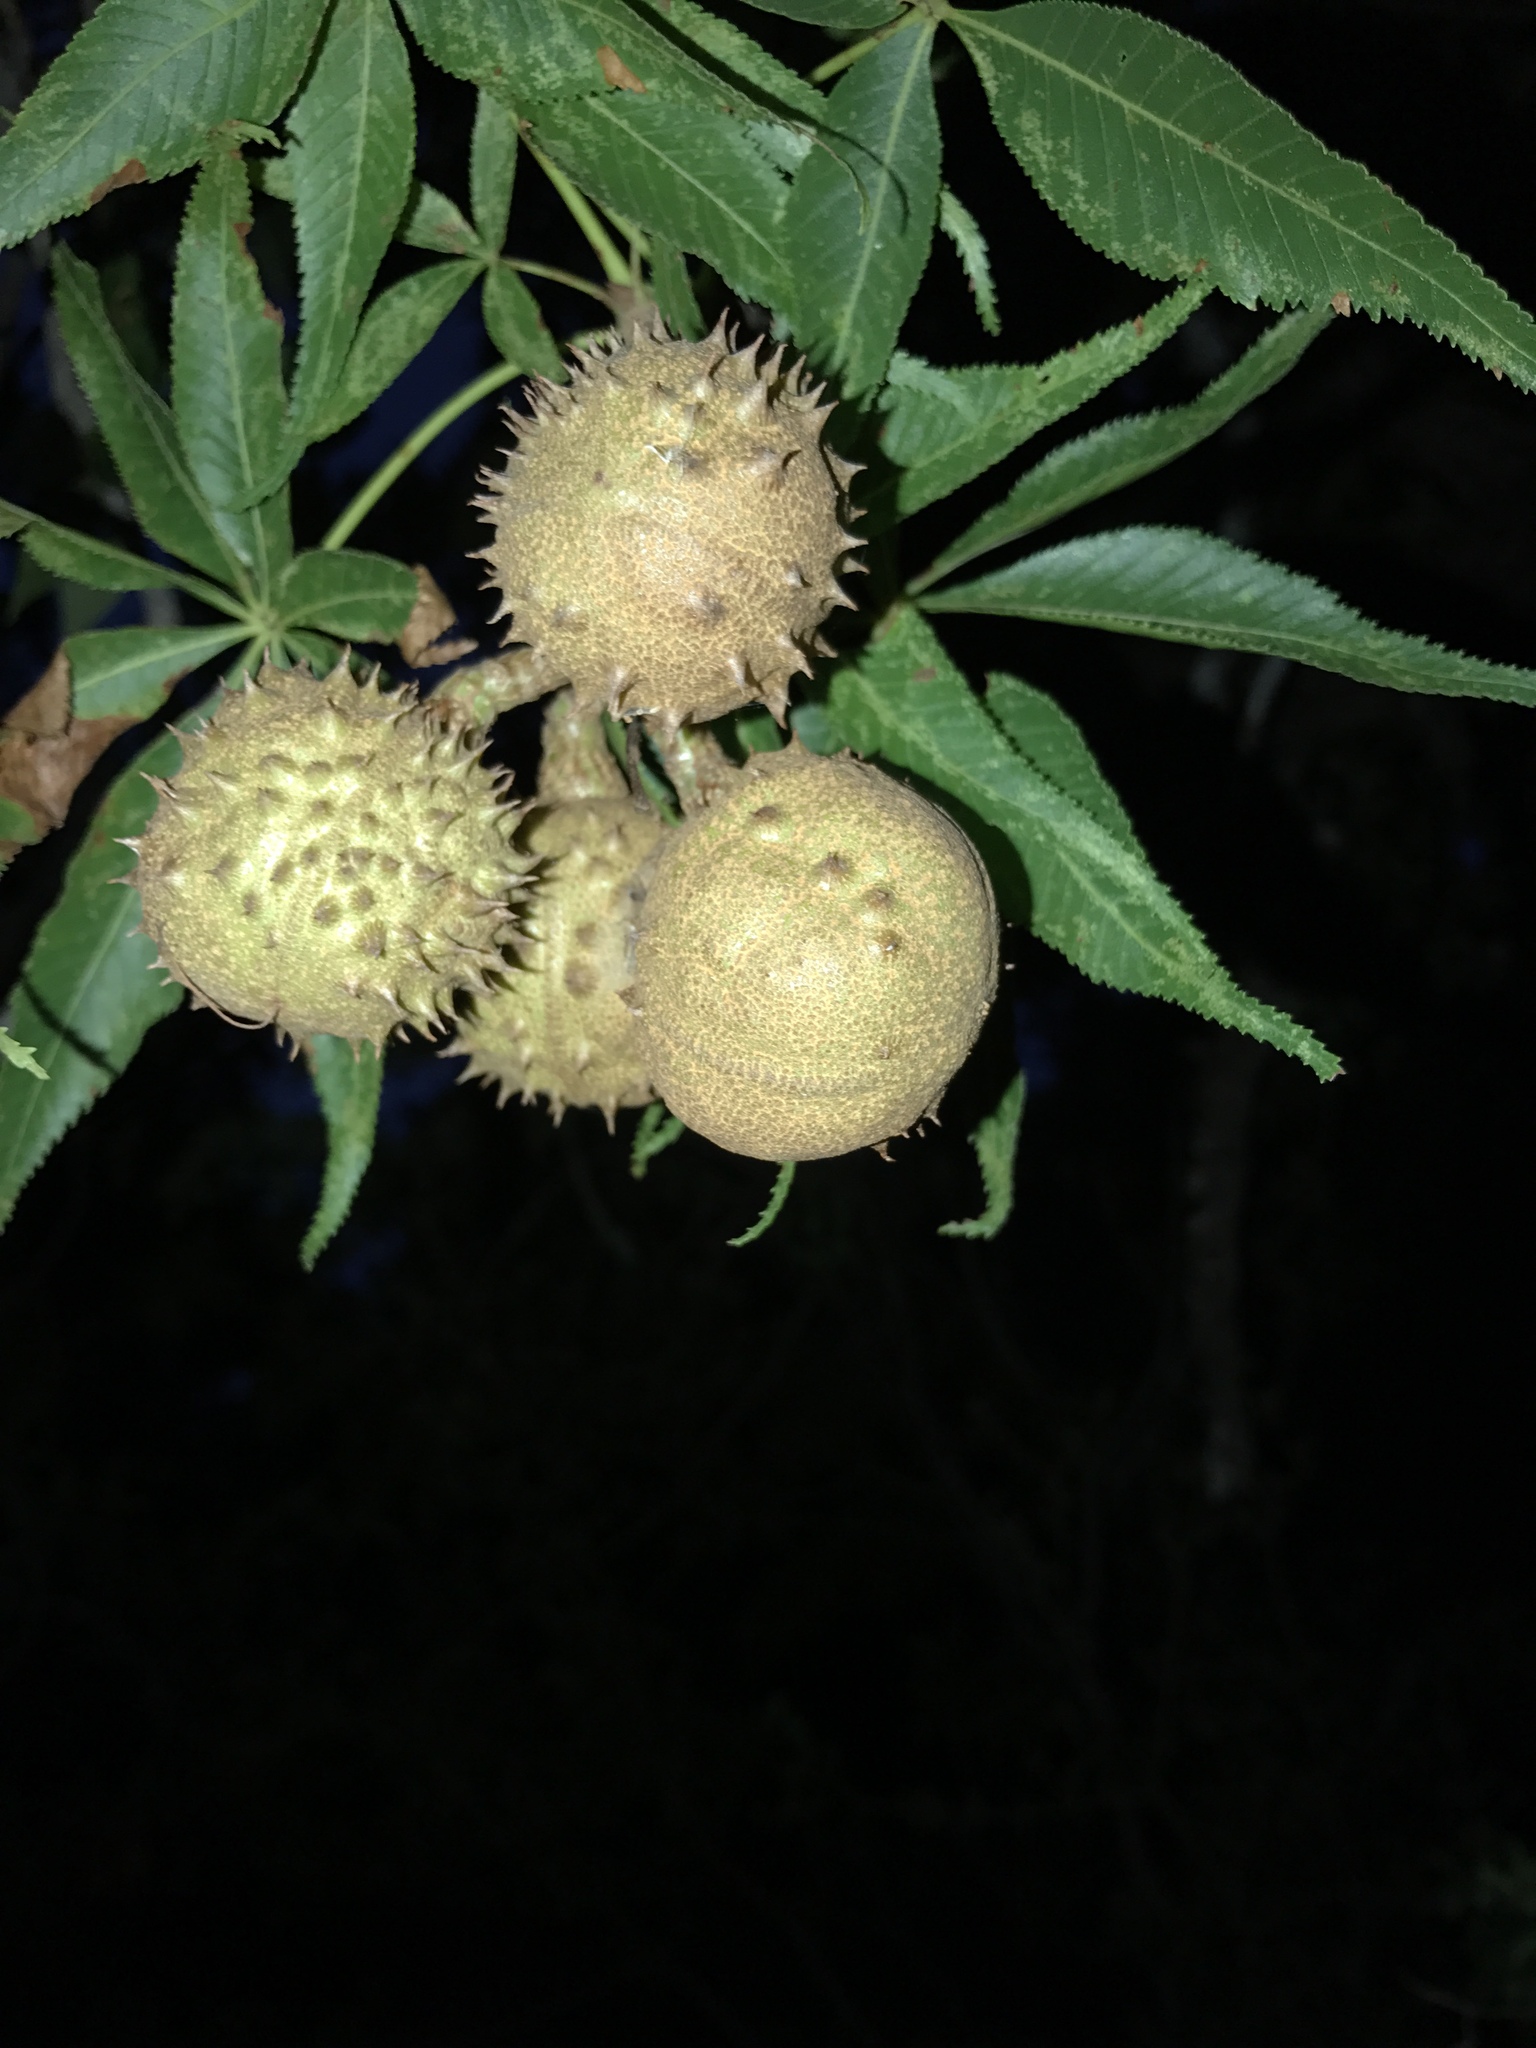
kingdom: Plantae
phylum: Tracheophyta
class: Magnoliopsida
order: Sapindales
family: Sapindaceae
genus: Aesculus
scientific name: Aesculus glabra
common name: Ohio buckeye
